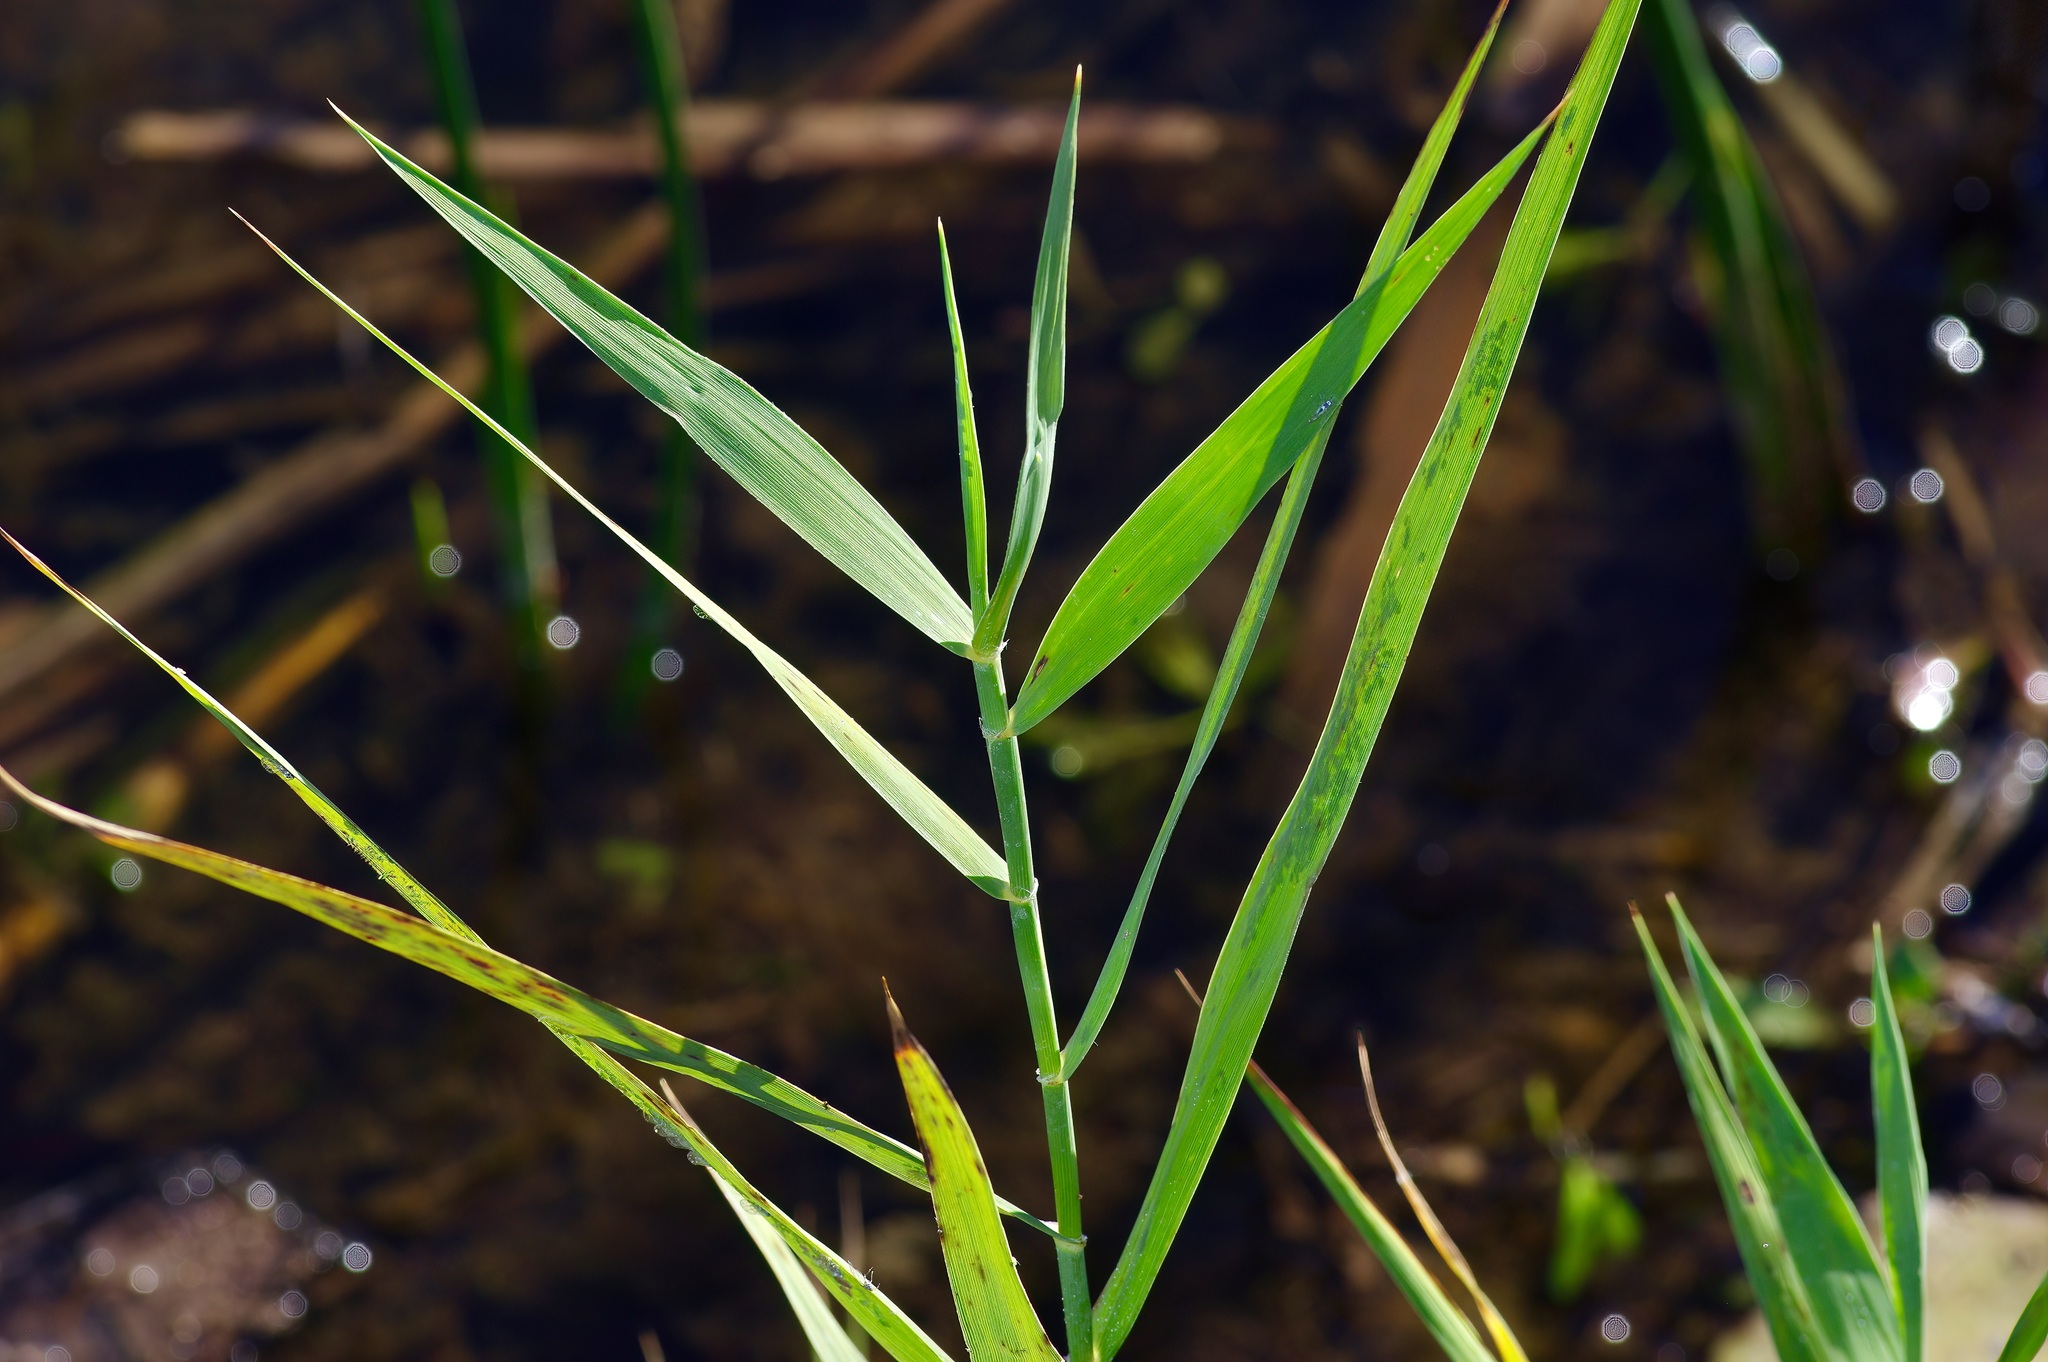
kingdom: Plantae
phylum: Tracheophyta
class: Liliopsida
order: Poales
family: Poaceae
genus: Phragmites
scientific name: Phragmites australis
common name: Common reed
